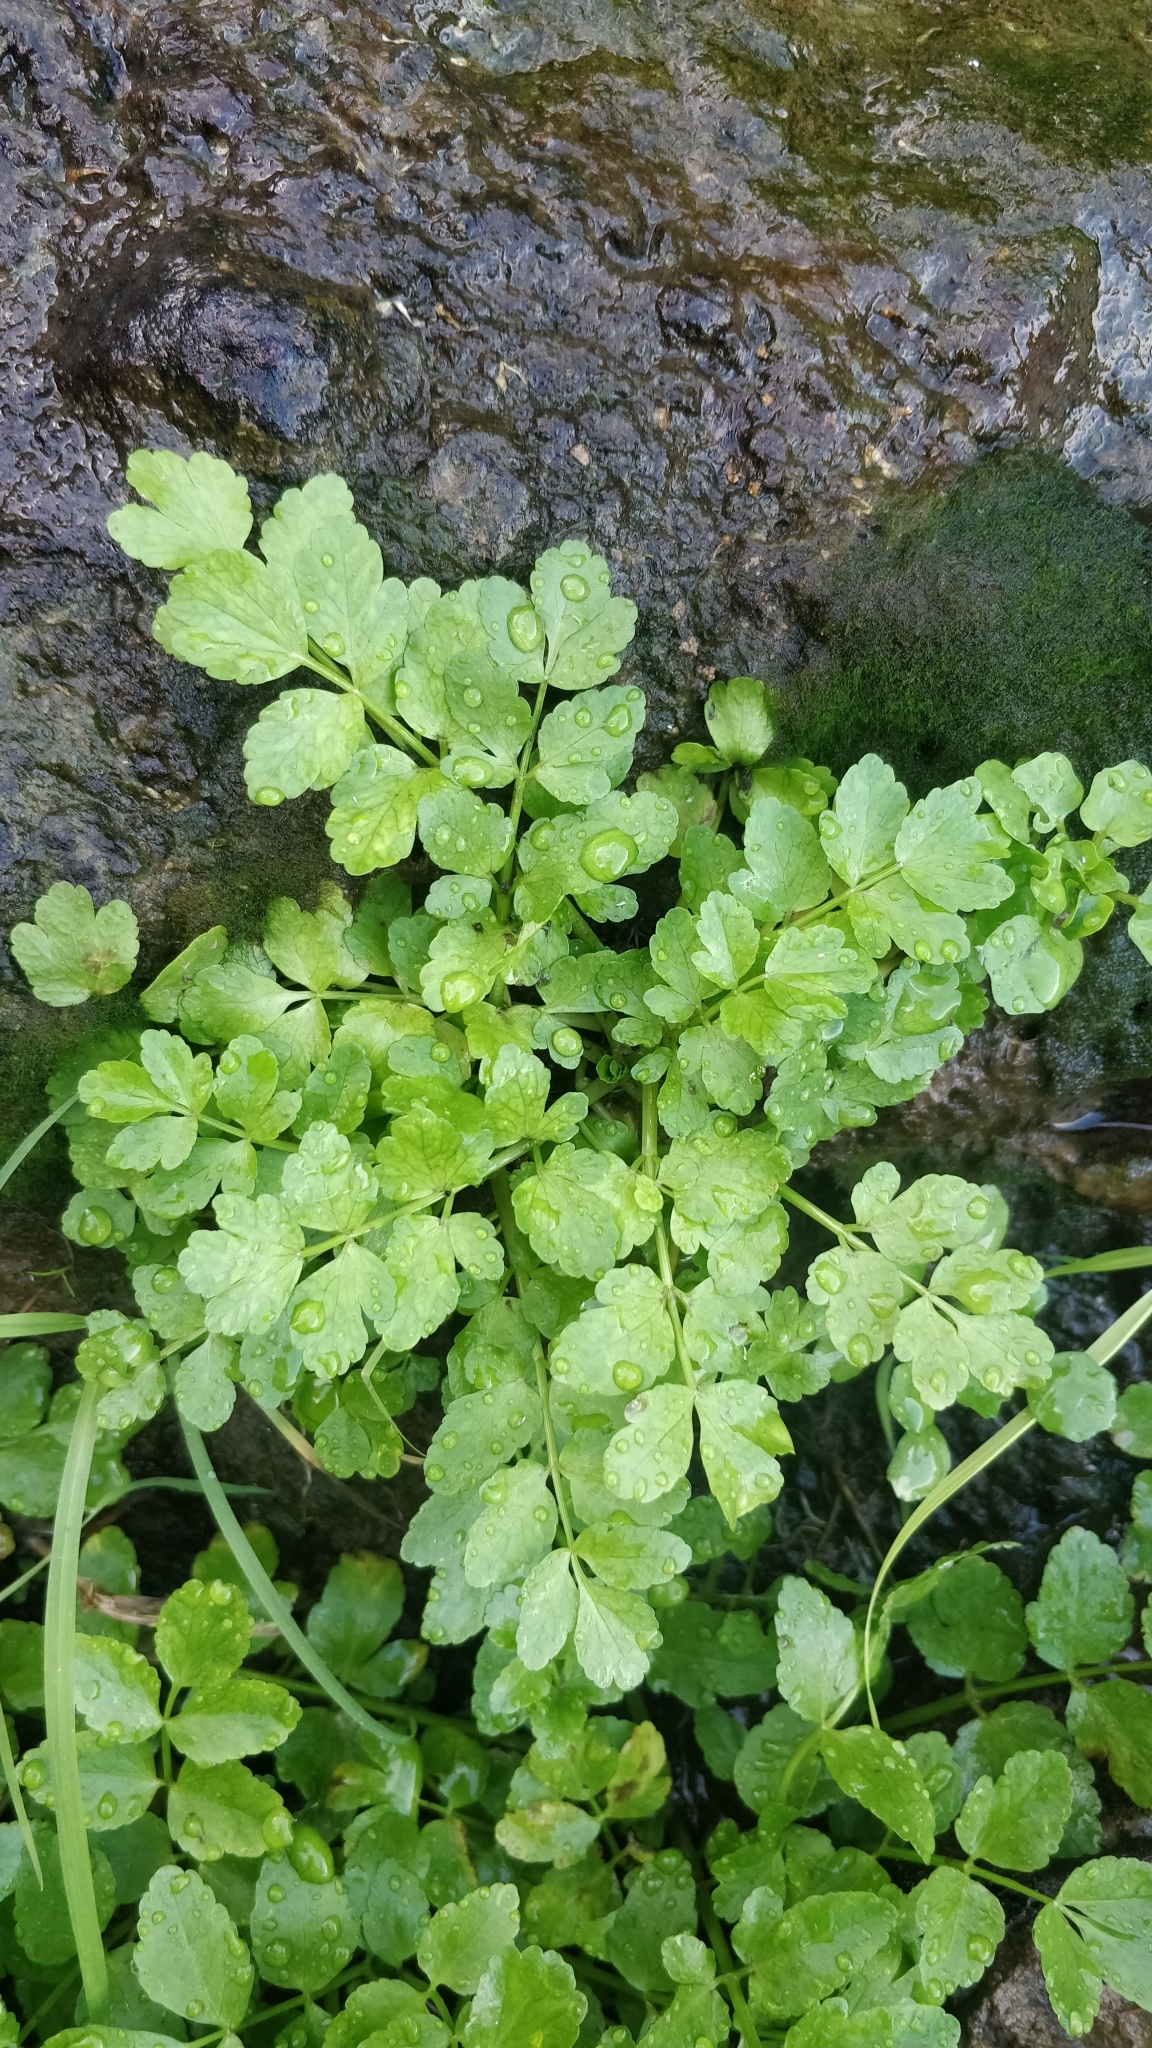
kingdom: Plantae
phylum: Tracheophyta
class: Magnoliopsida
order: Apiales
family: Apiaceae
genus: Helosciadium
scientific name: Helosciadium nodiflorum
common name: Fool's-watercress
